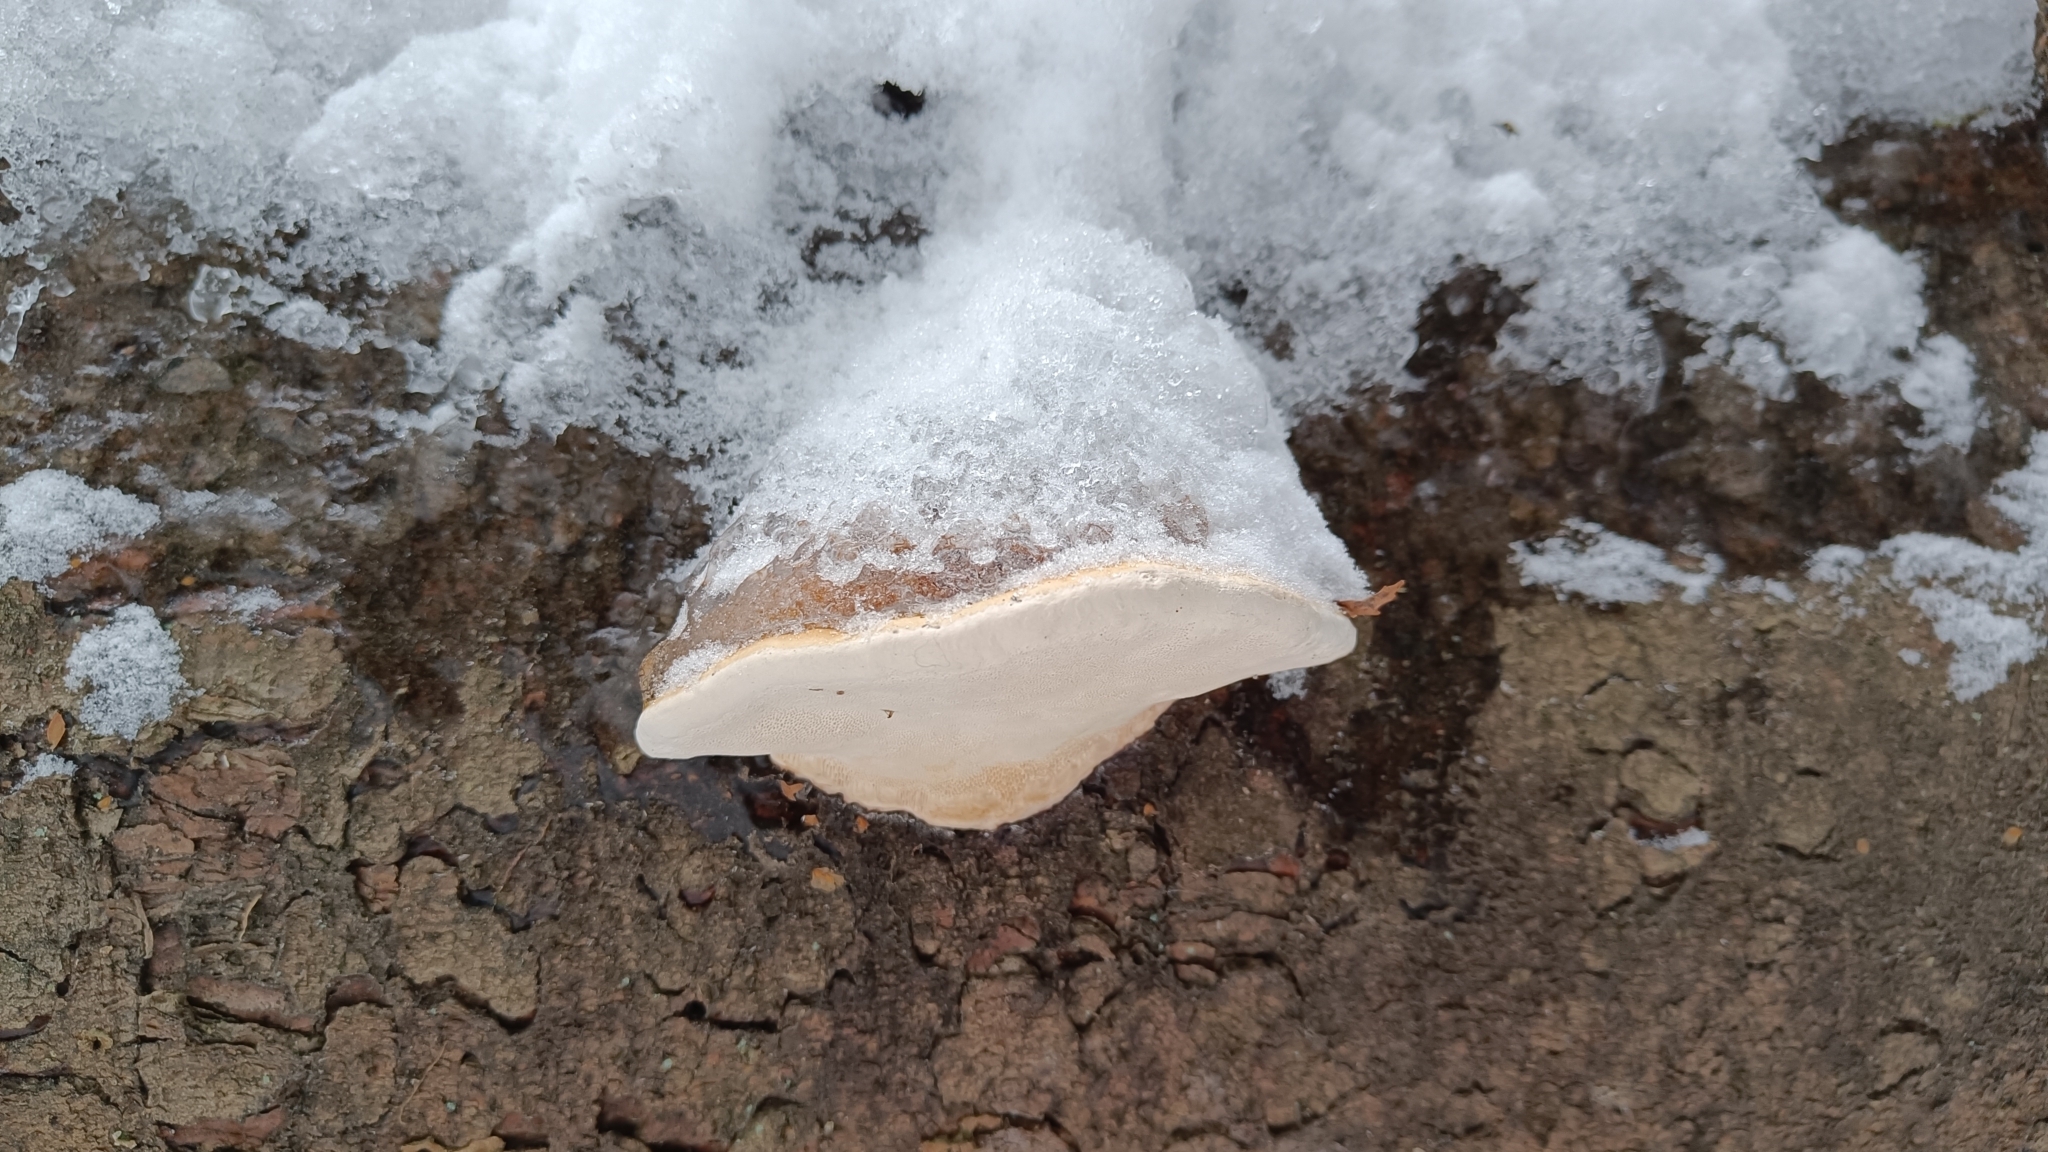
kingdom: Fungi
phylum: Basidiomycota
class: Agaricomycetes
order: Polyporales
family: Fomitopsidaceae
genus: Fomitopsis
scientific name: Fomitopsis pinicola
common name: Red-belted bracket
